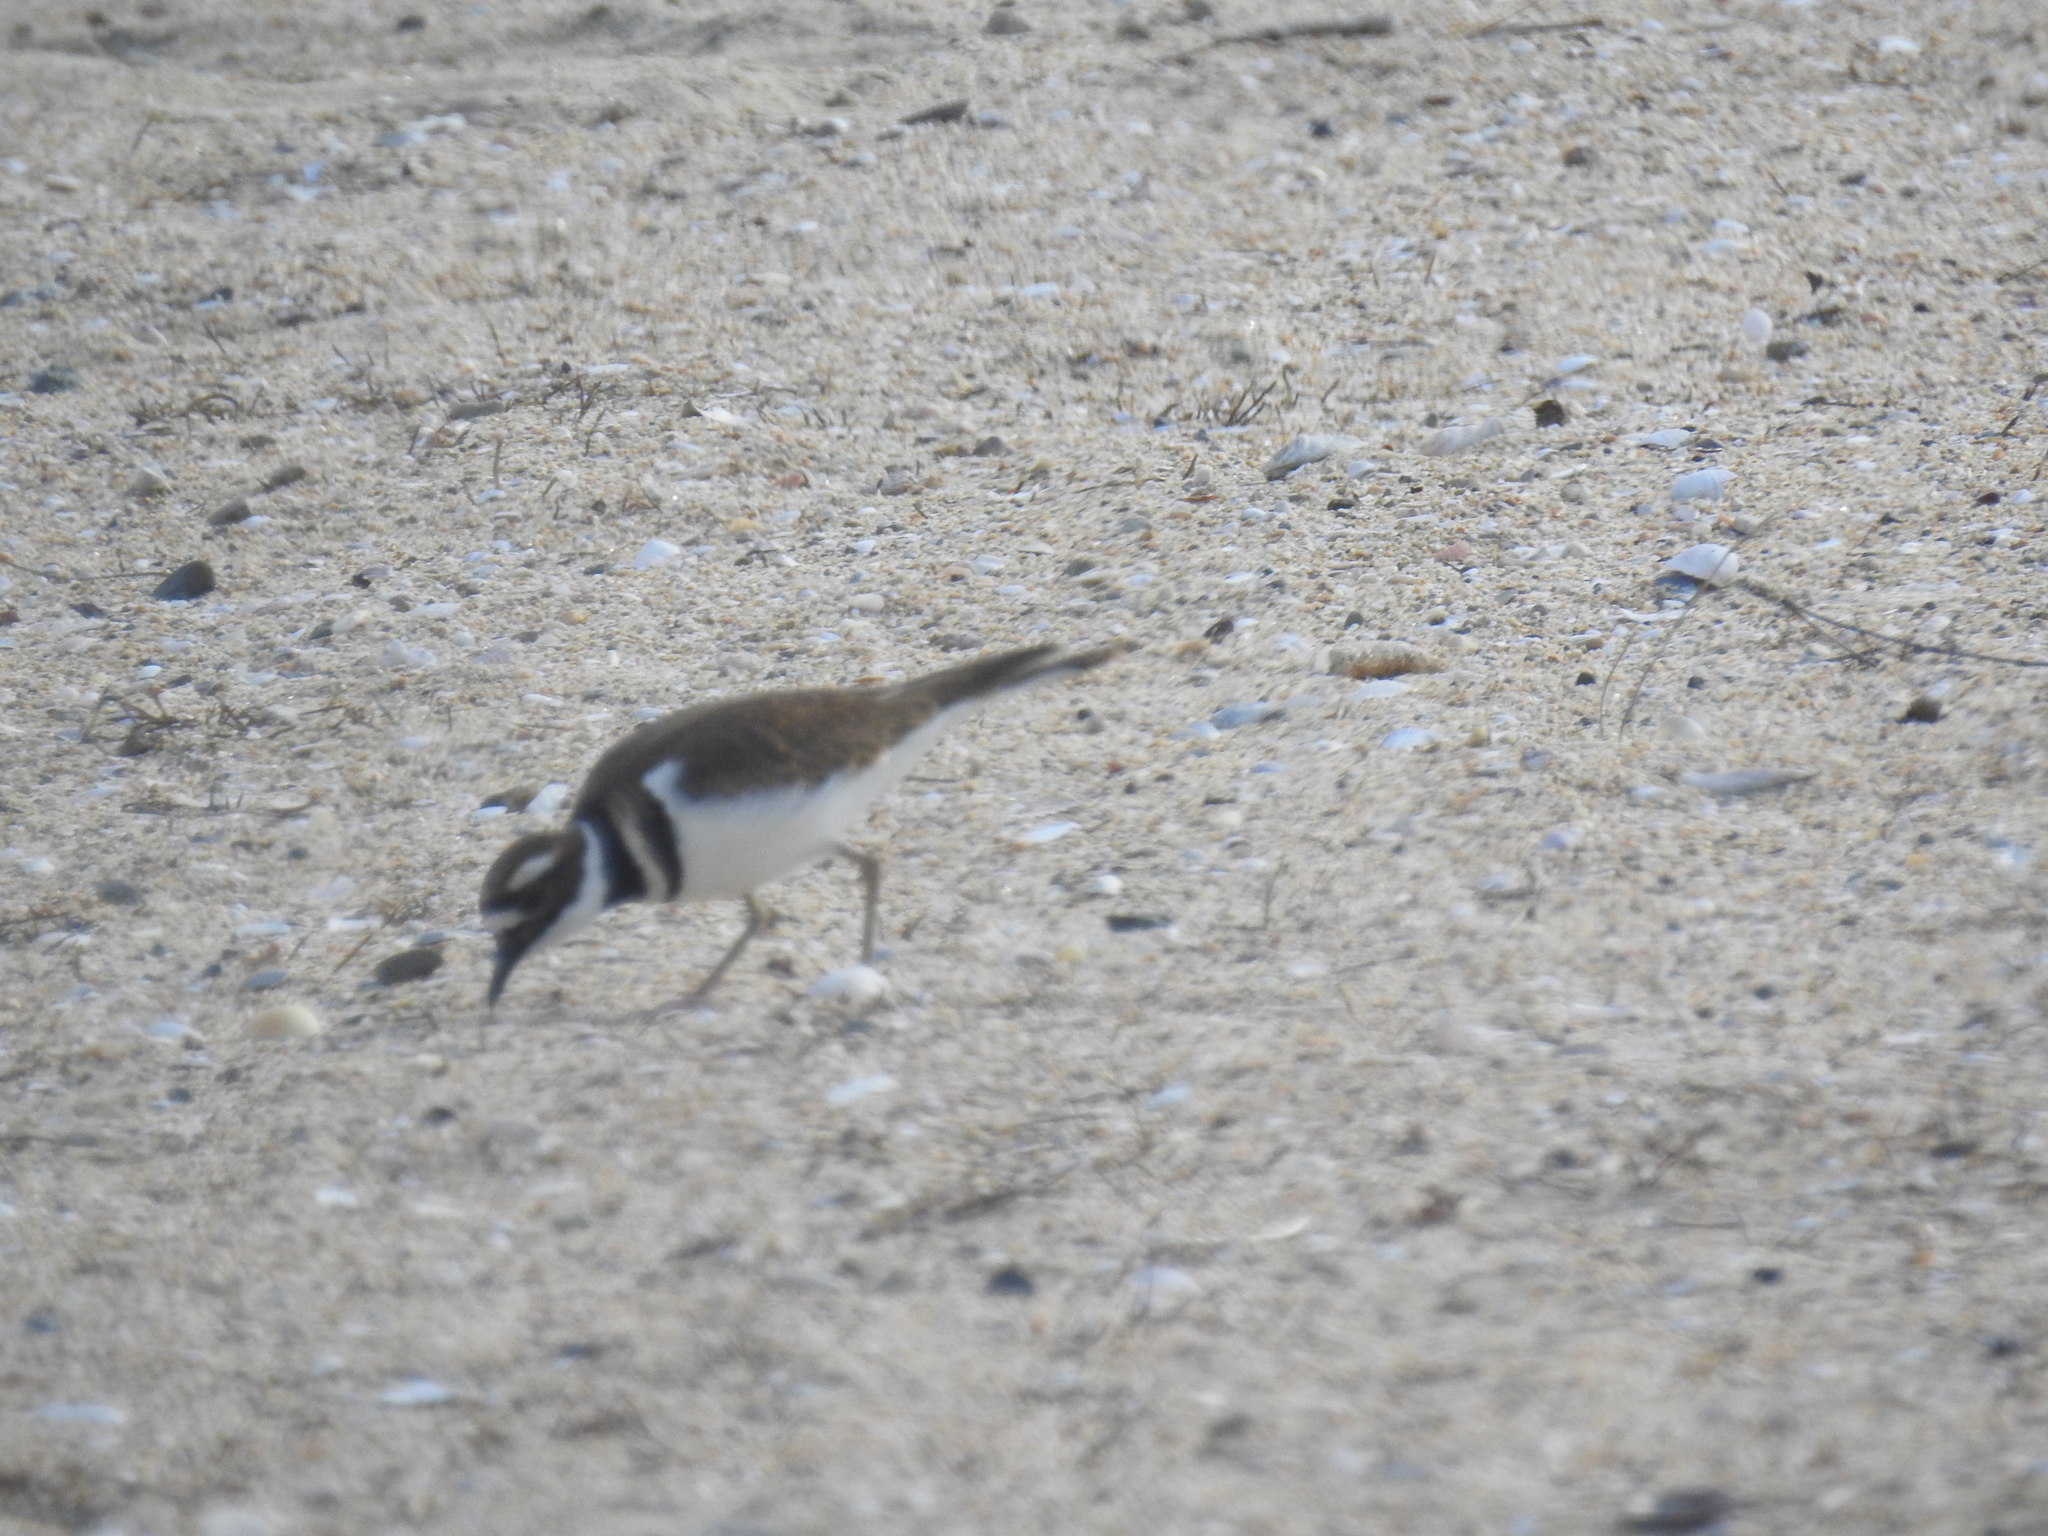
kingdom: Animalia
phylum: Chordata
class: Aves
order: Charadriiformes
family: Charadriidae
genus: Charadrius
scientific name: Charadrius vociferus
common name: Killdeer
